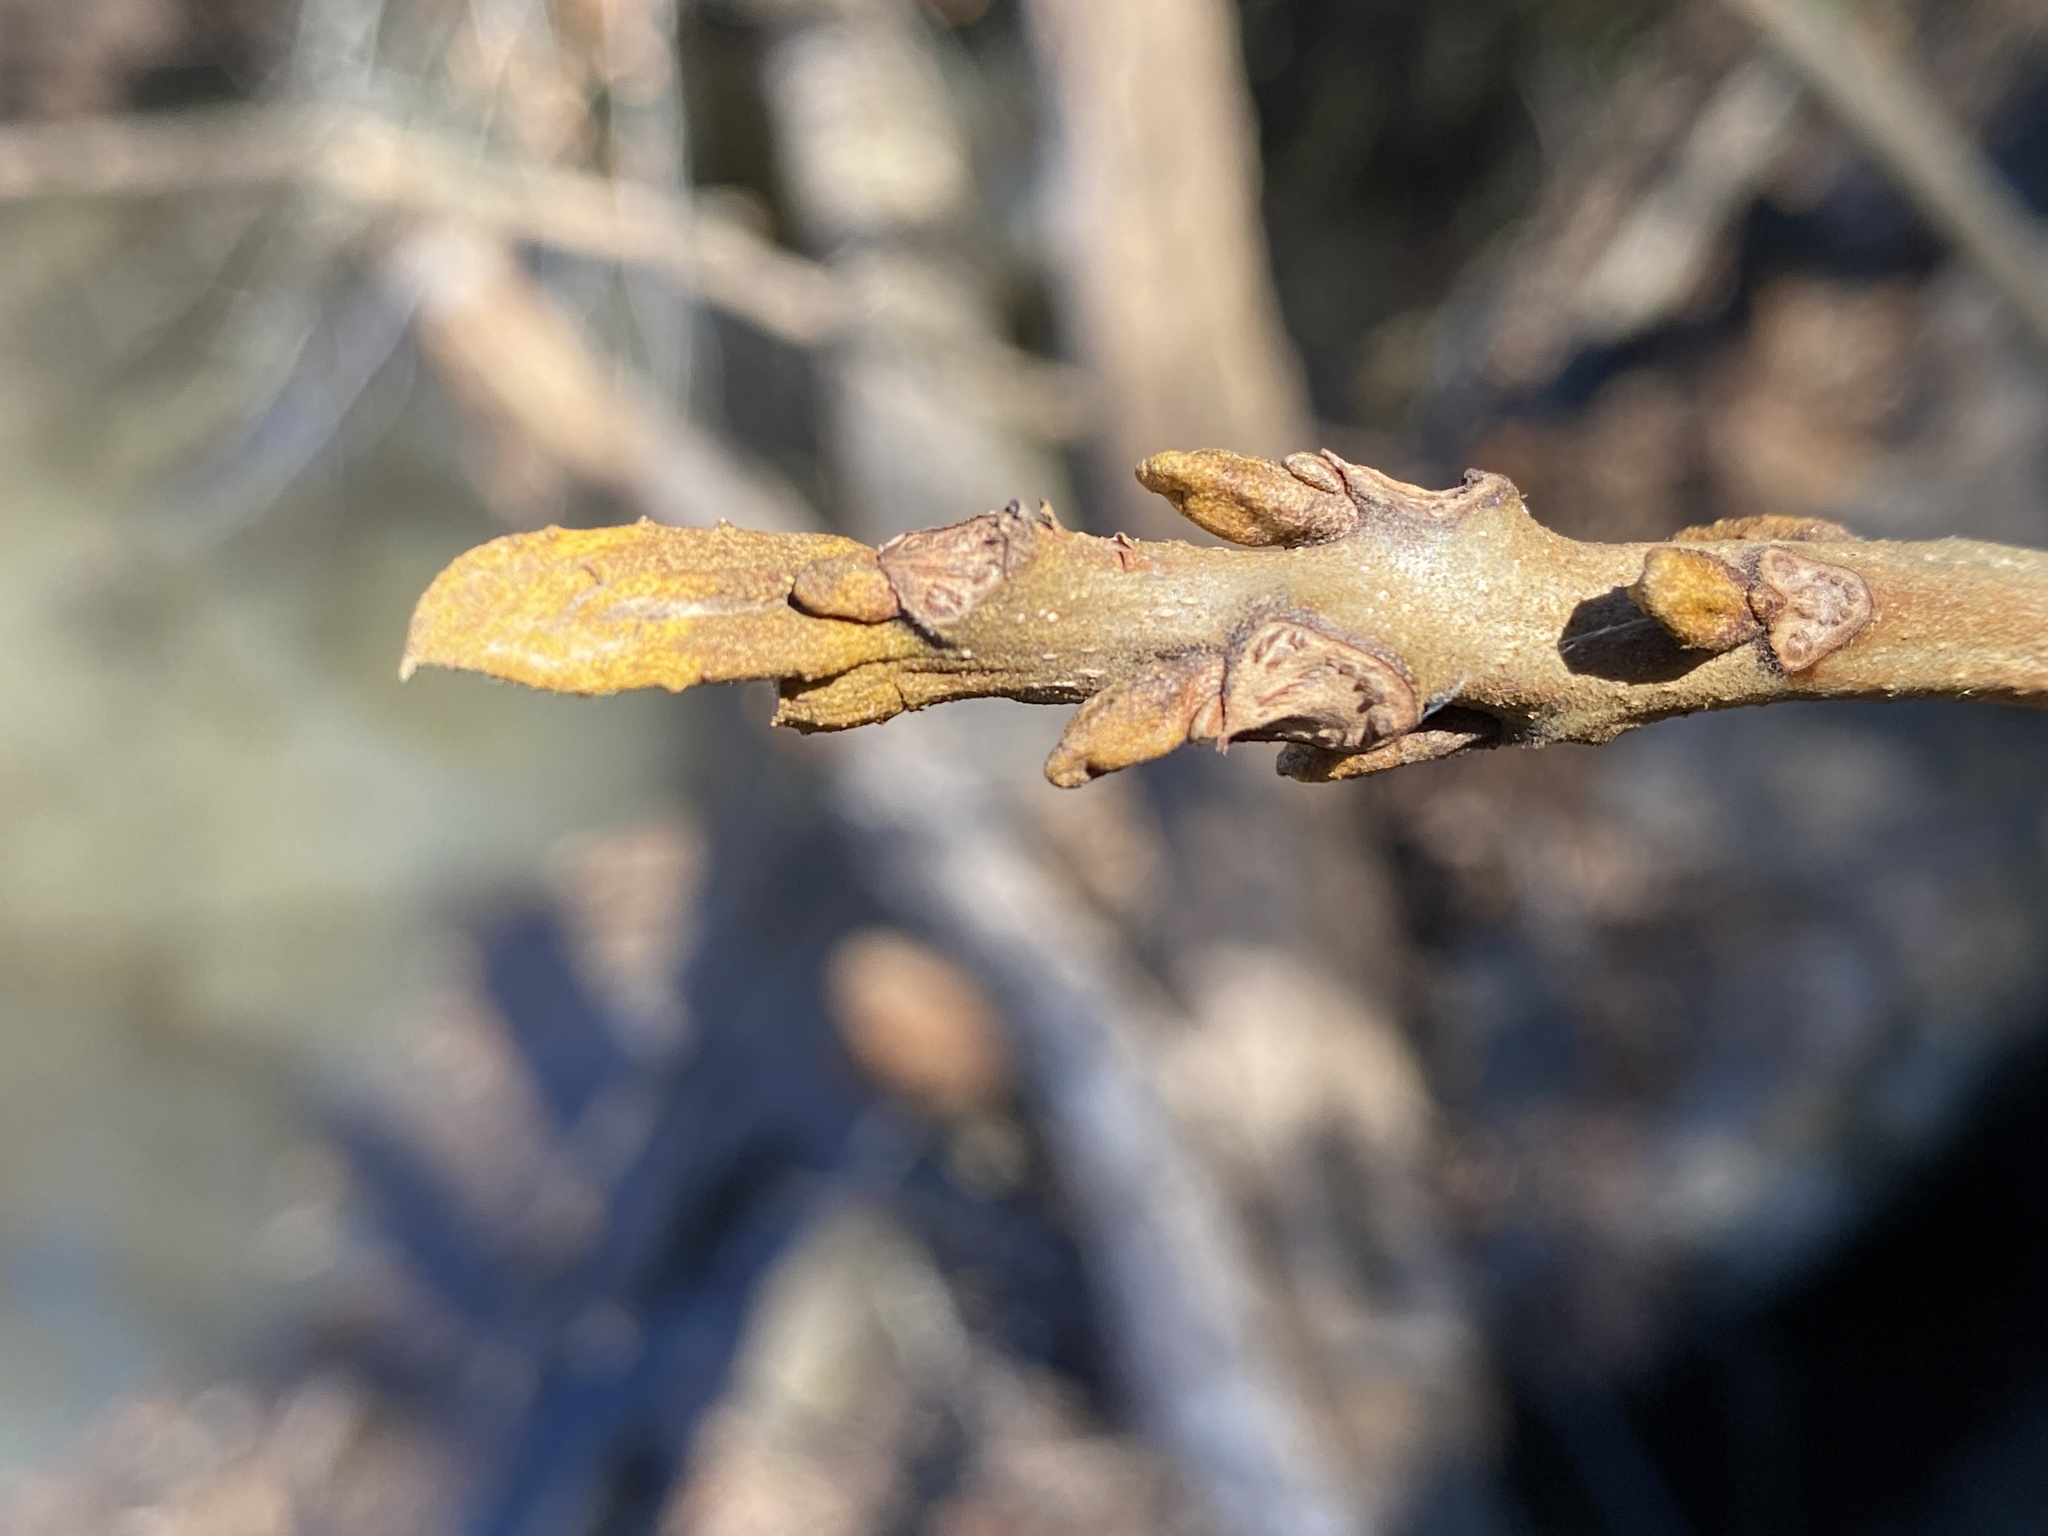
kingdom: Plantae
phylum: Tracheophyta
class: Magnoliopsida
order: Fagales
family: Juglandaceae
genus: Carya
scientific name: Carya cordiformis
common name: Bitternut hickory
